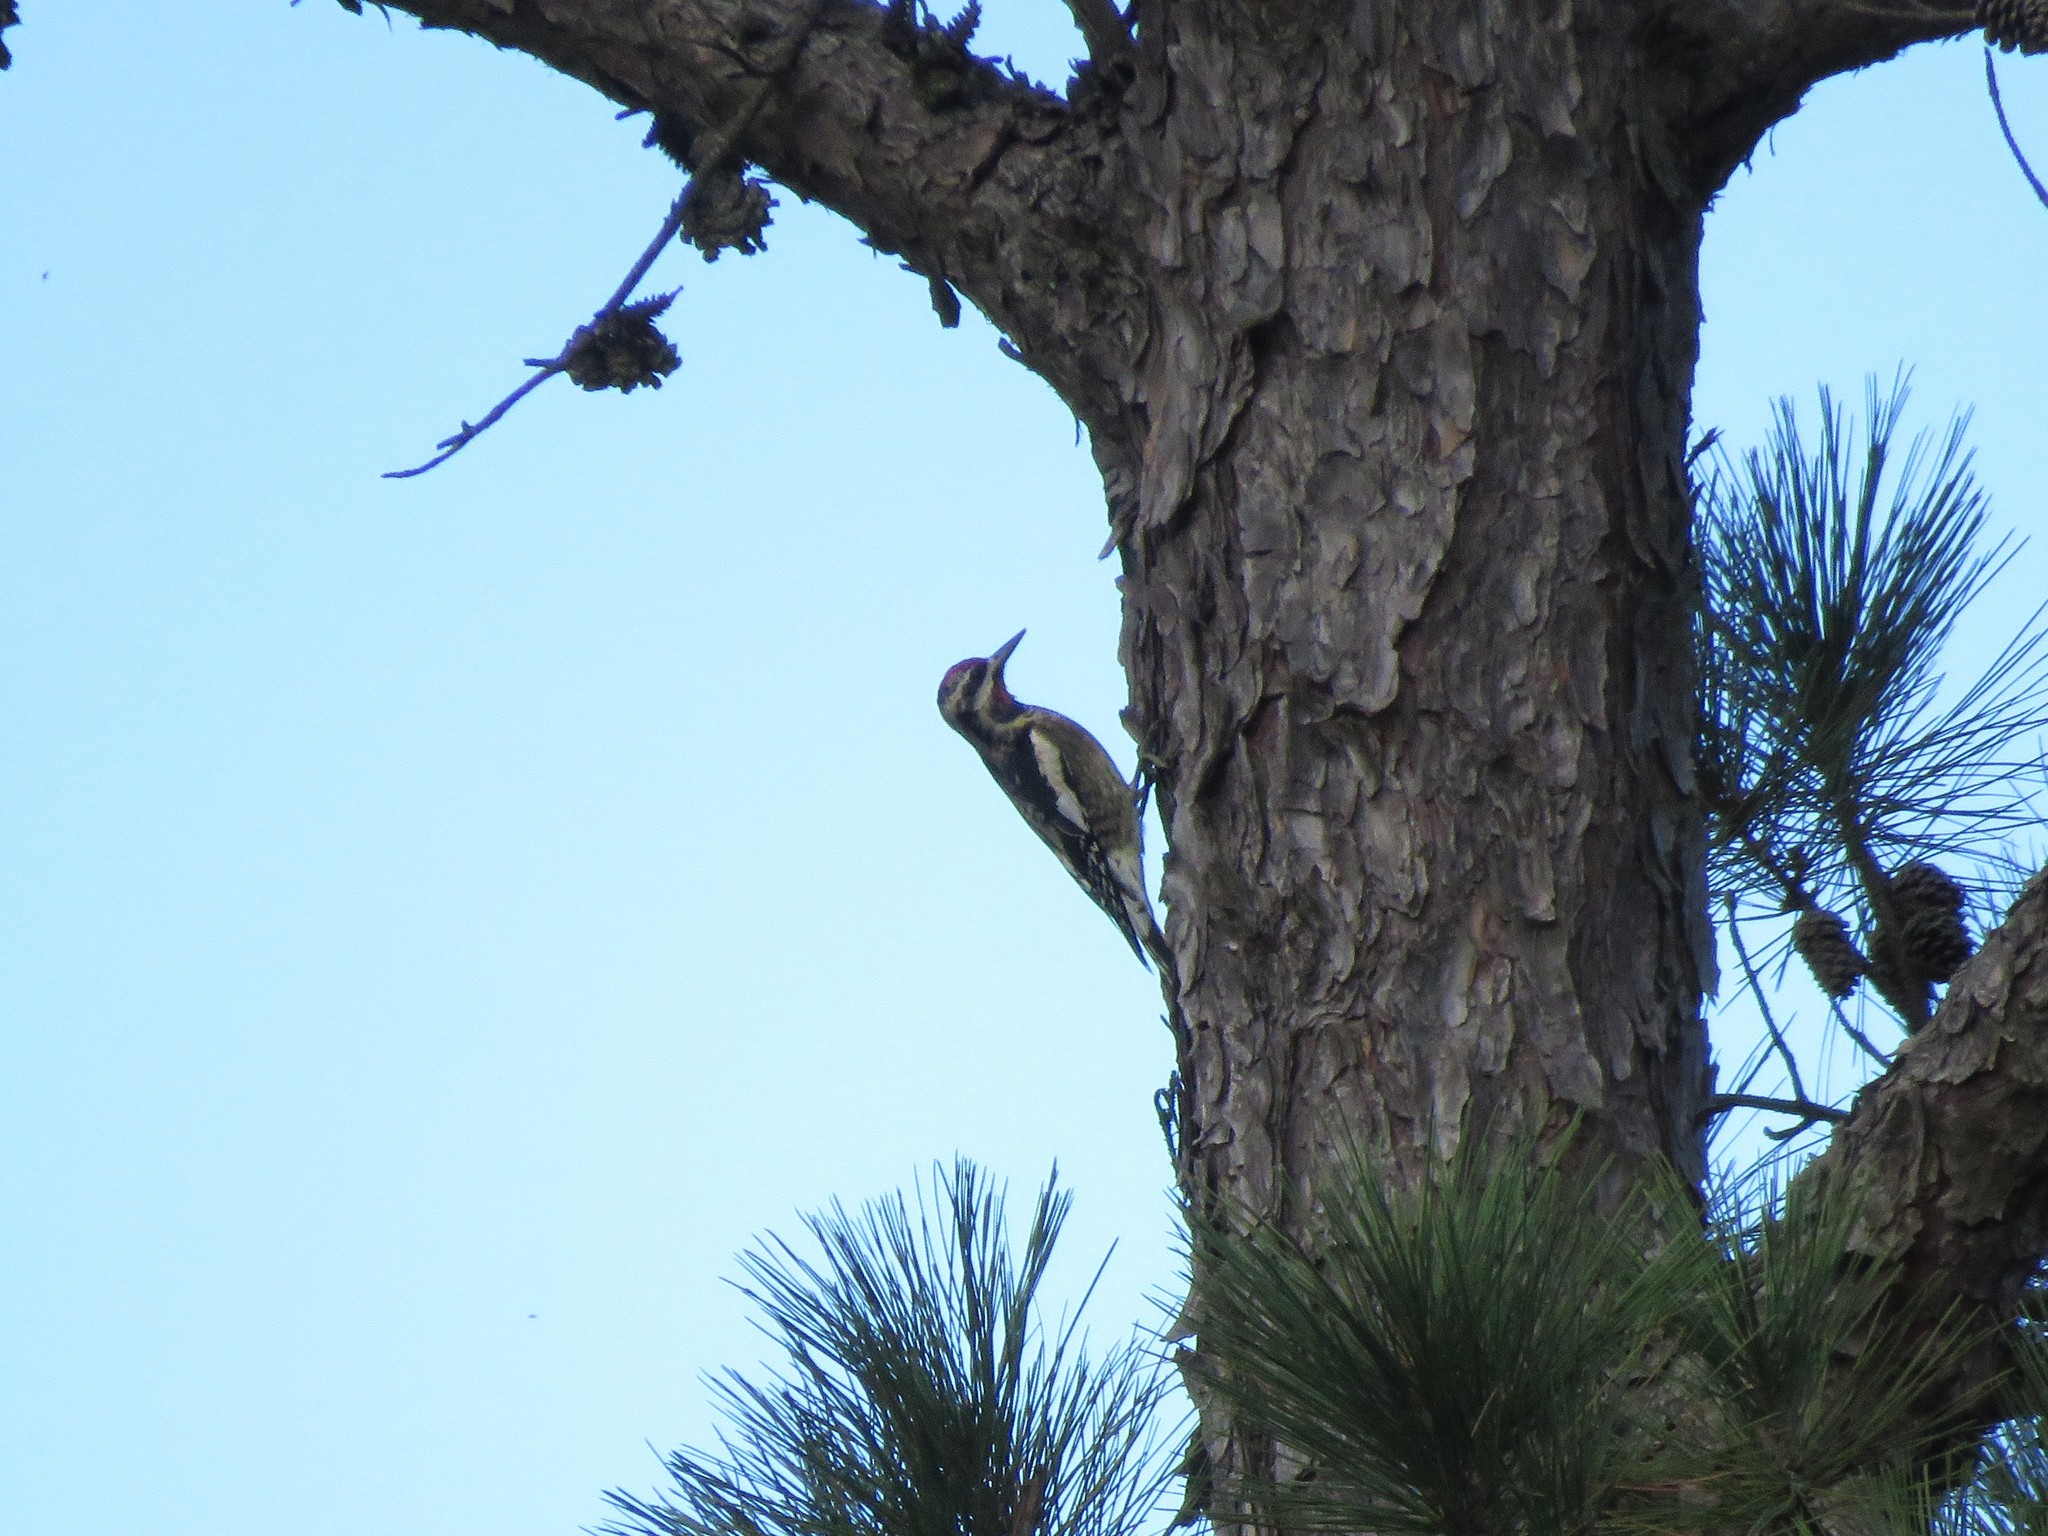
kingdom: Animalia
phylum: Chordata
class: Aves
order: Piciformes
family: Picidae
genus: Sphyrapicus
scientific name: Sphyrapicus varius
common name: Yellow-bellied sapsucker
